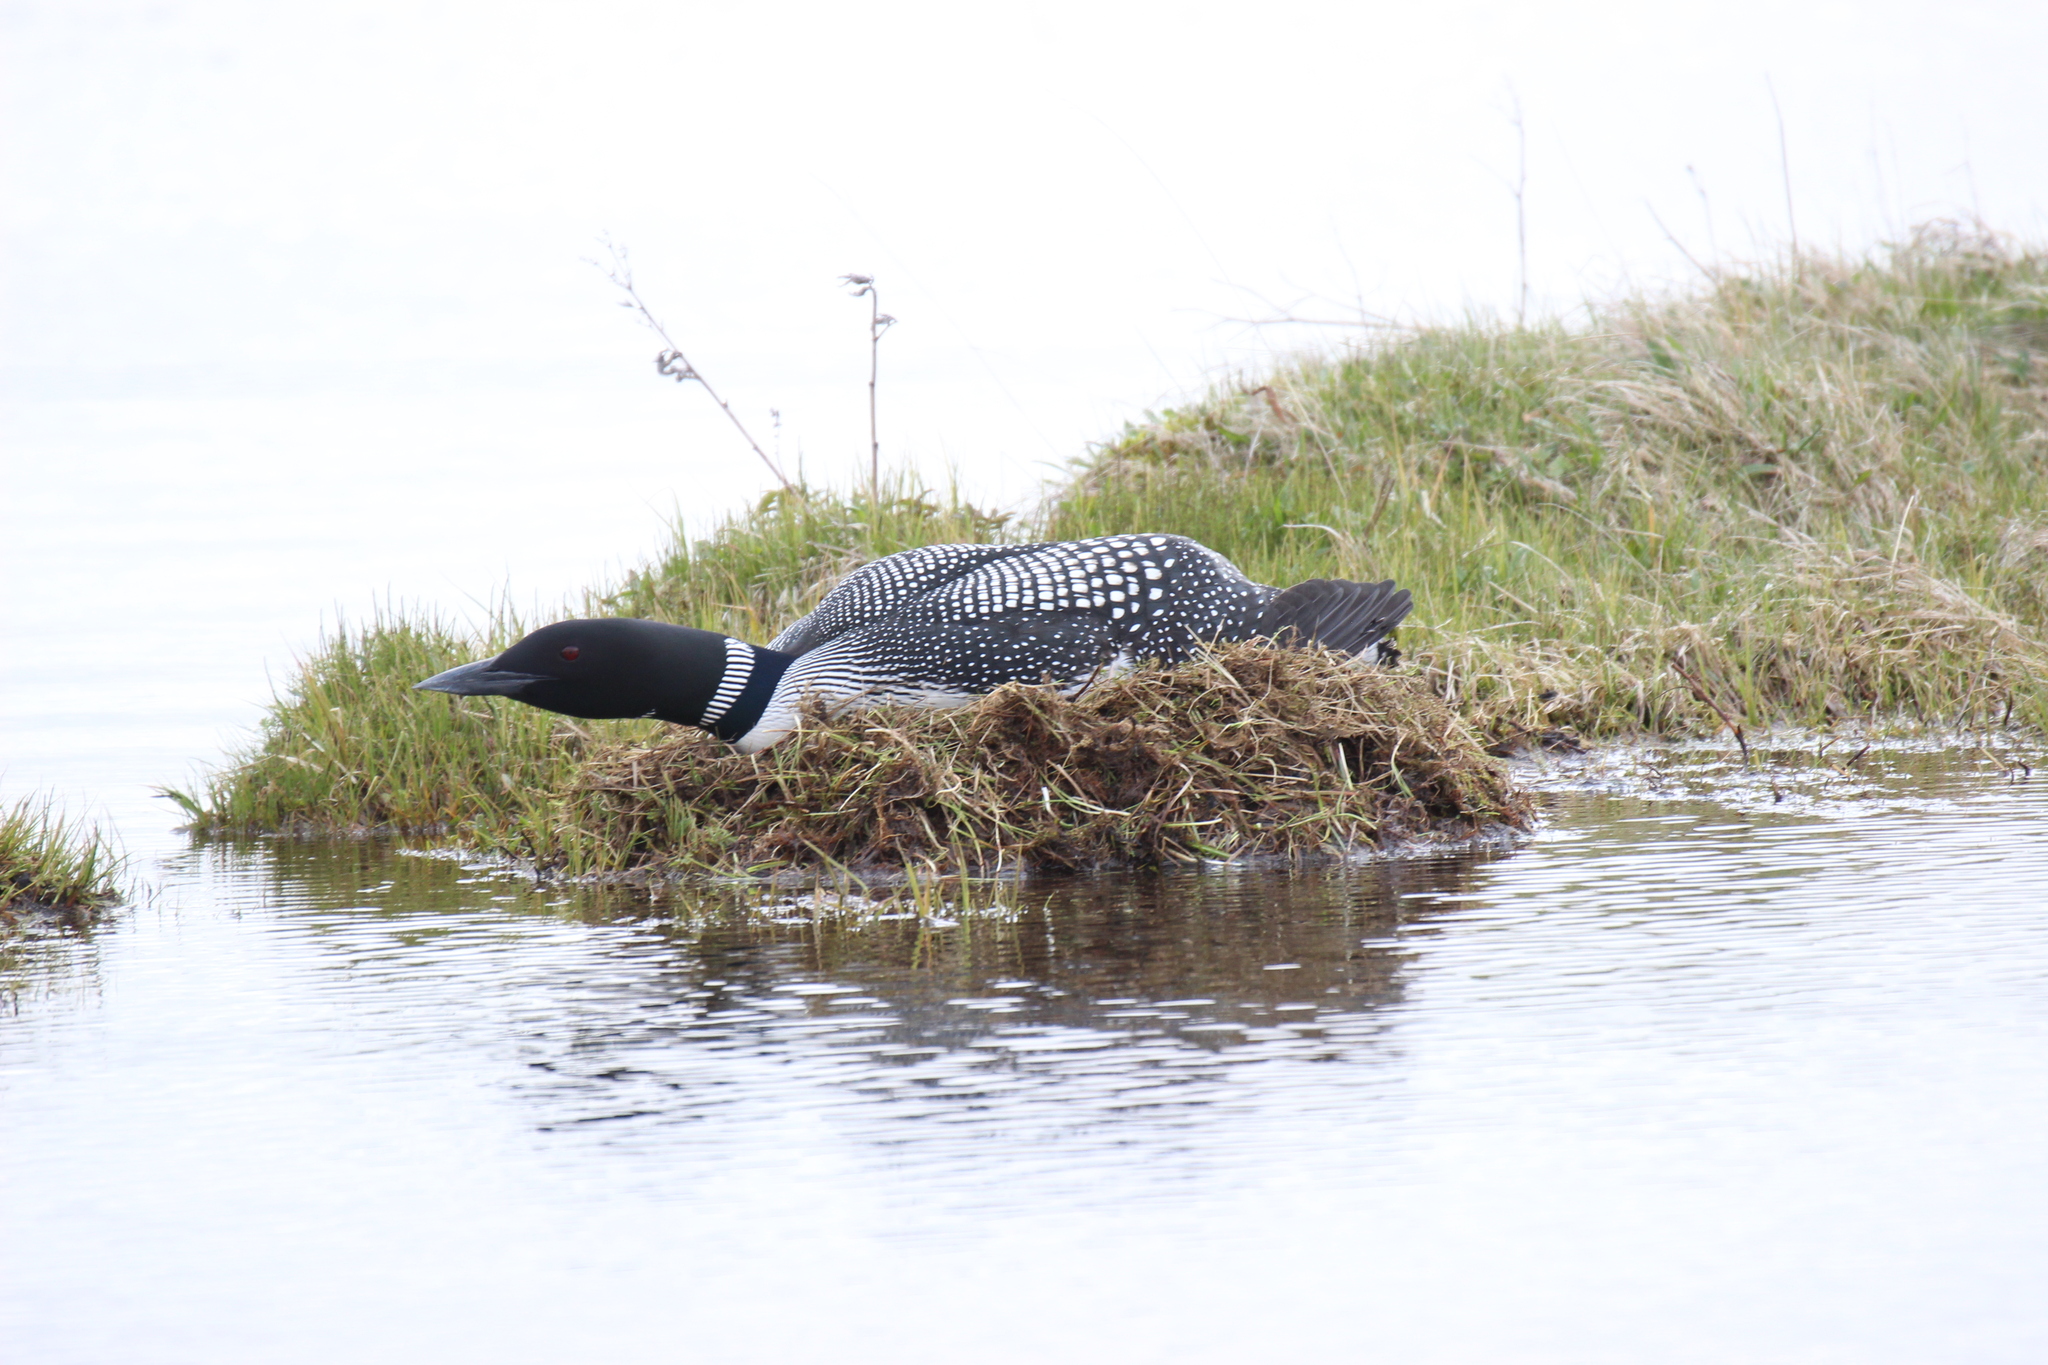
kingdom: Animalia
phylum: Chordata
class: Aves
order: Gaviiformes
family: Gaviidae
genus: Gavia
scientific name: Gavia immer
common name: Common loon
